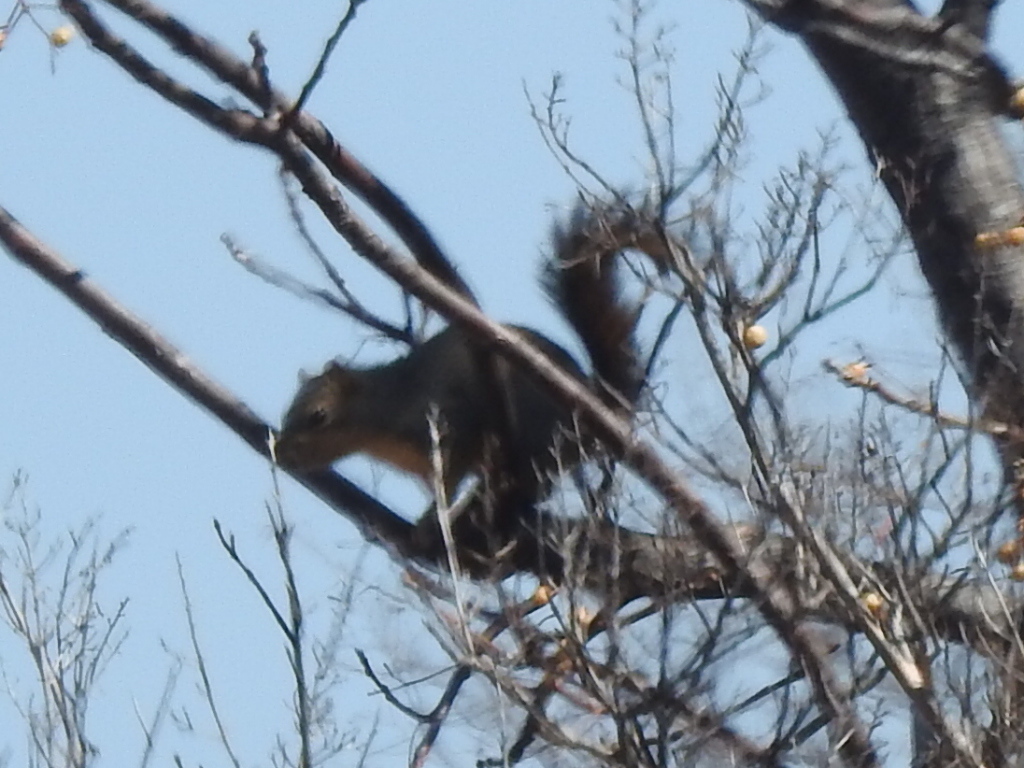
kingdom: Animalia
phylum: Chordata
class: Mammalia
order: Rodentia
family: Sciuridae
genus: Sciurus
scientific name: Sciurus niger
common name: Fox squirrel
